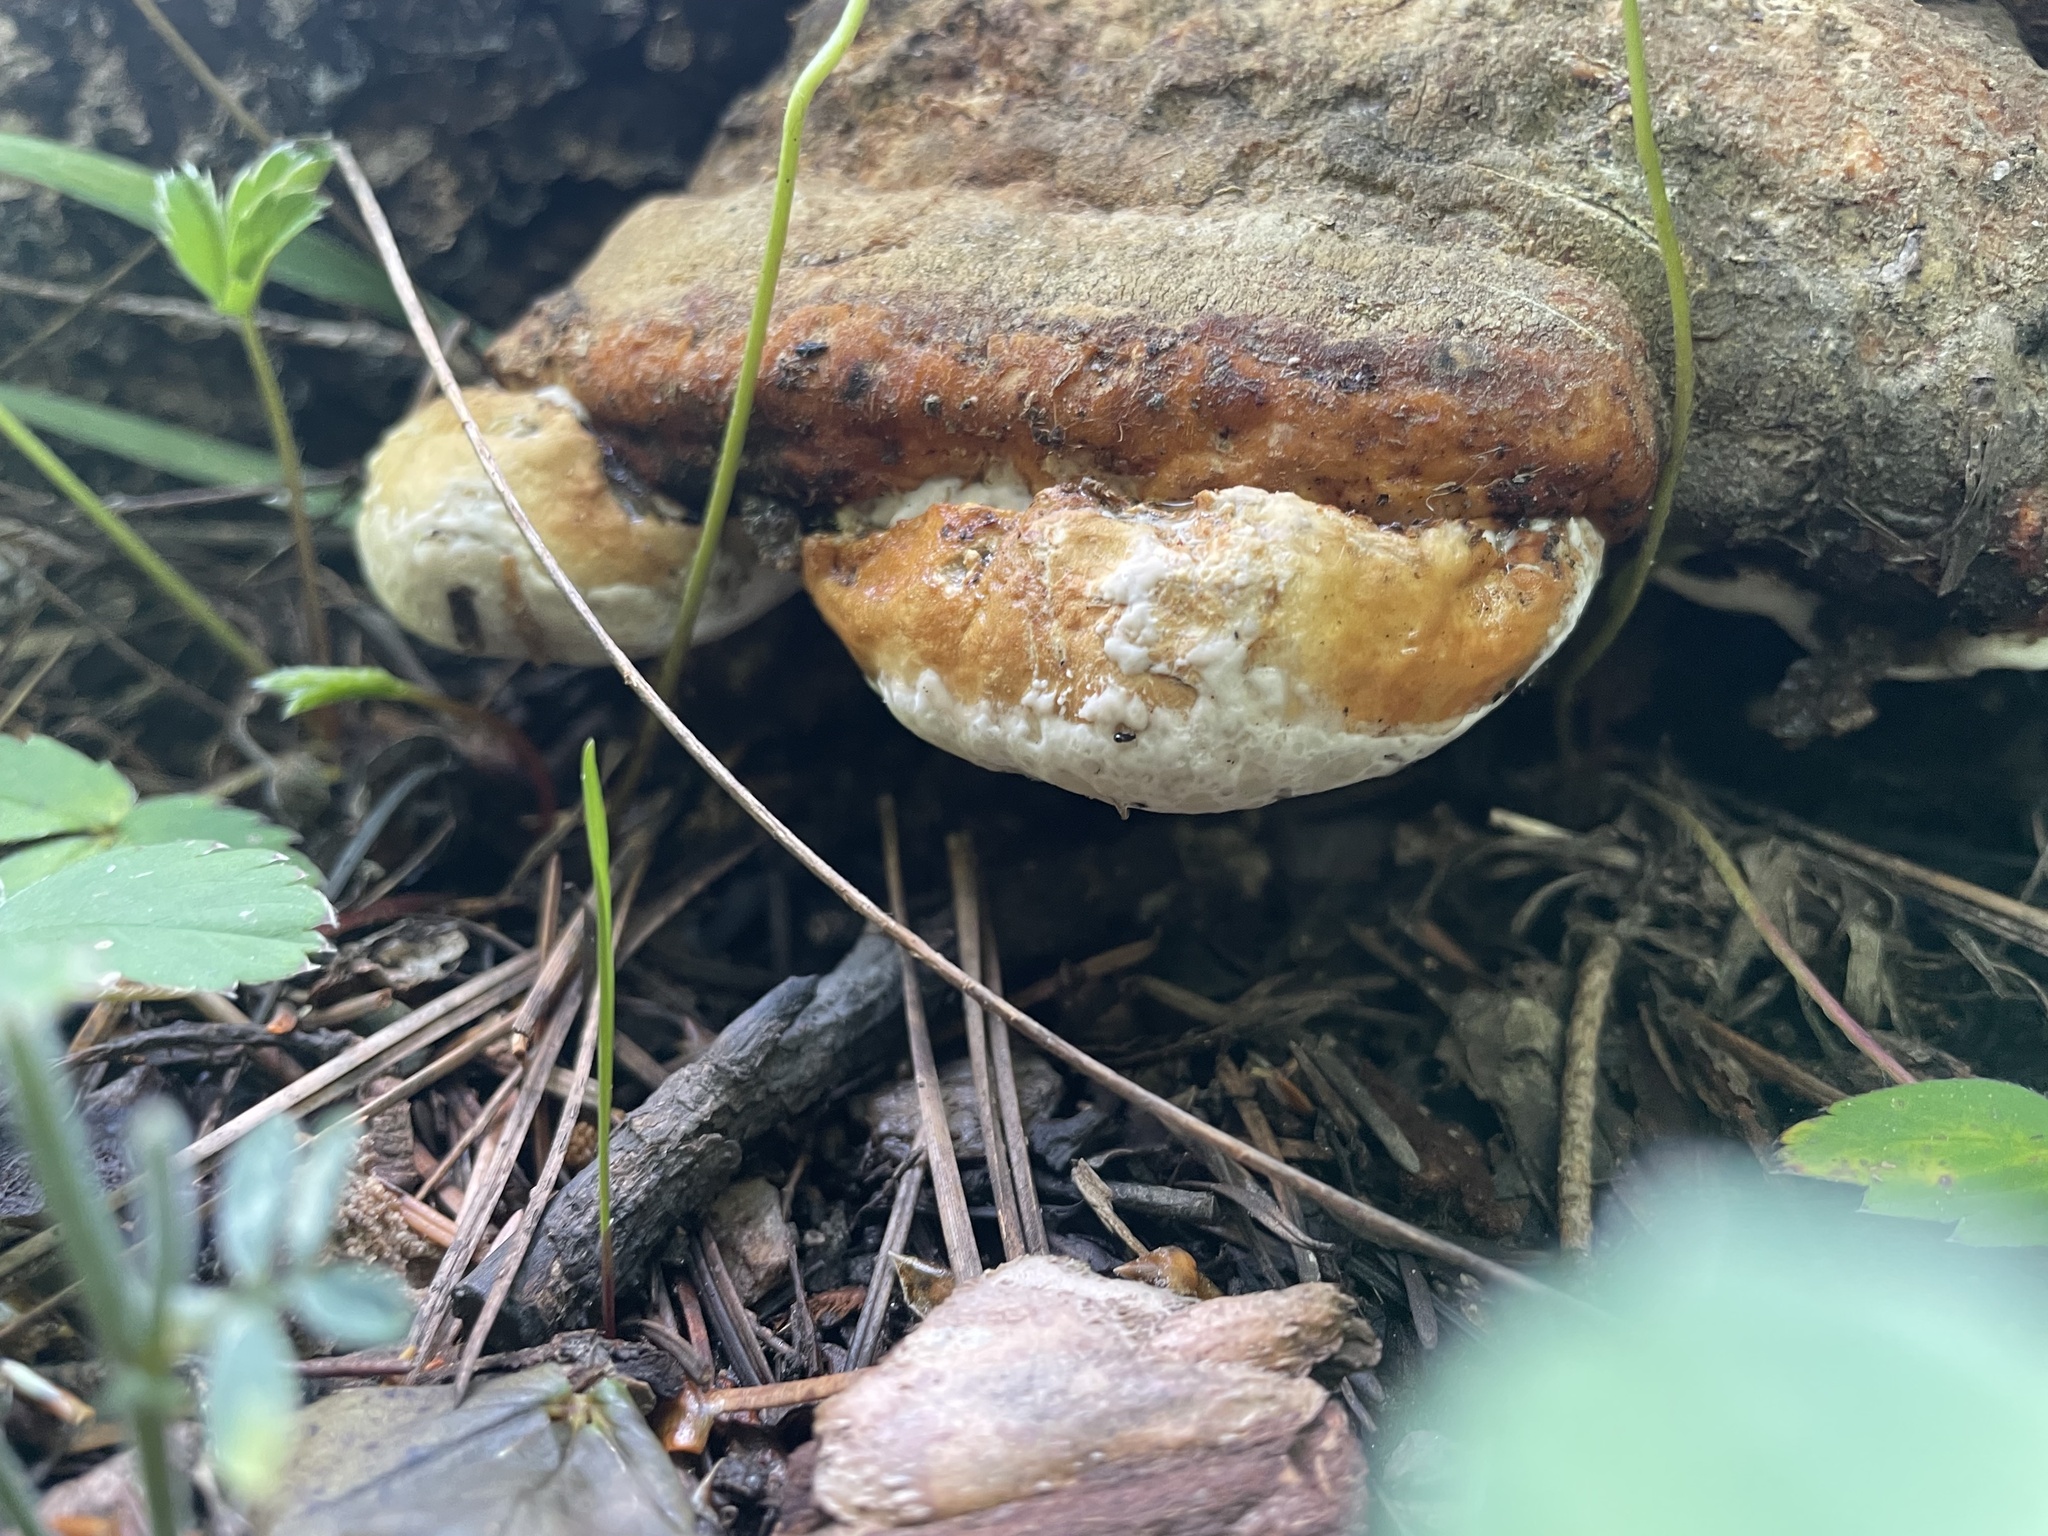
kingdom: Fungi
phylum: Basidiomycota
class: Agaricomycetes
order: Polyporales
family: Fomitopsidaceae
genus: Fomitopsis
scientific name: Fomitopsis schrenkii
